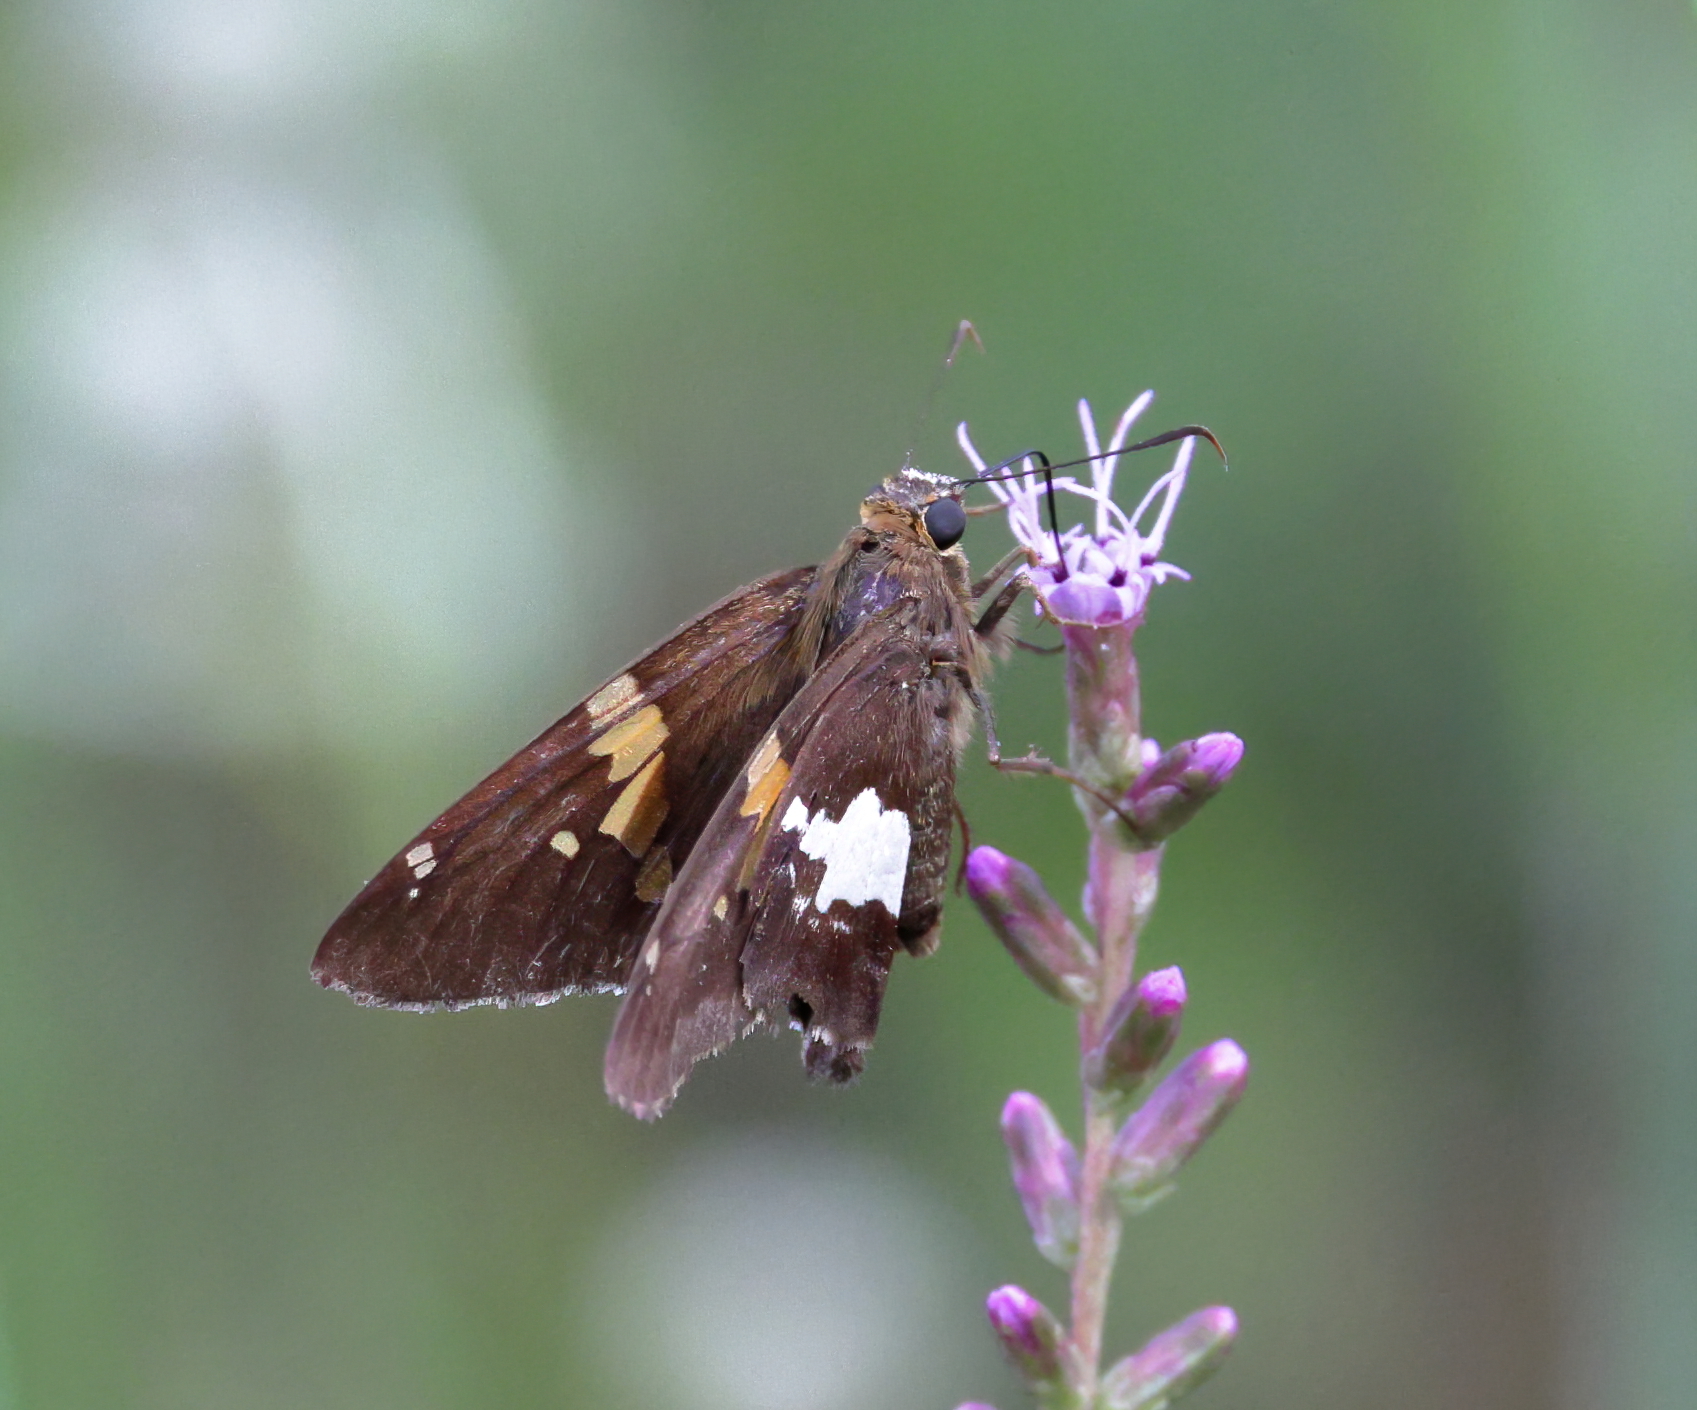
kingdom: Animalia
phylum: Arthropoda
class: Insecta
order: Lepidoptera
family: Hesperiidae
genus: Epargyreus
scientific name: Epargyreus clarus
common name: Silver-spotted skipper
